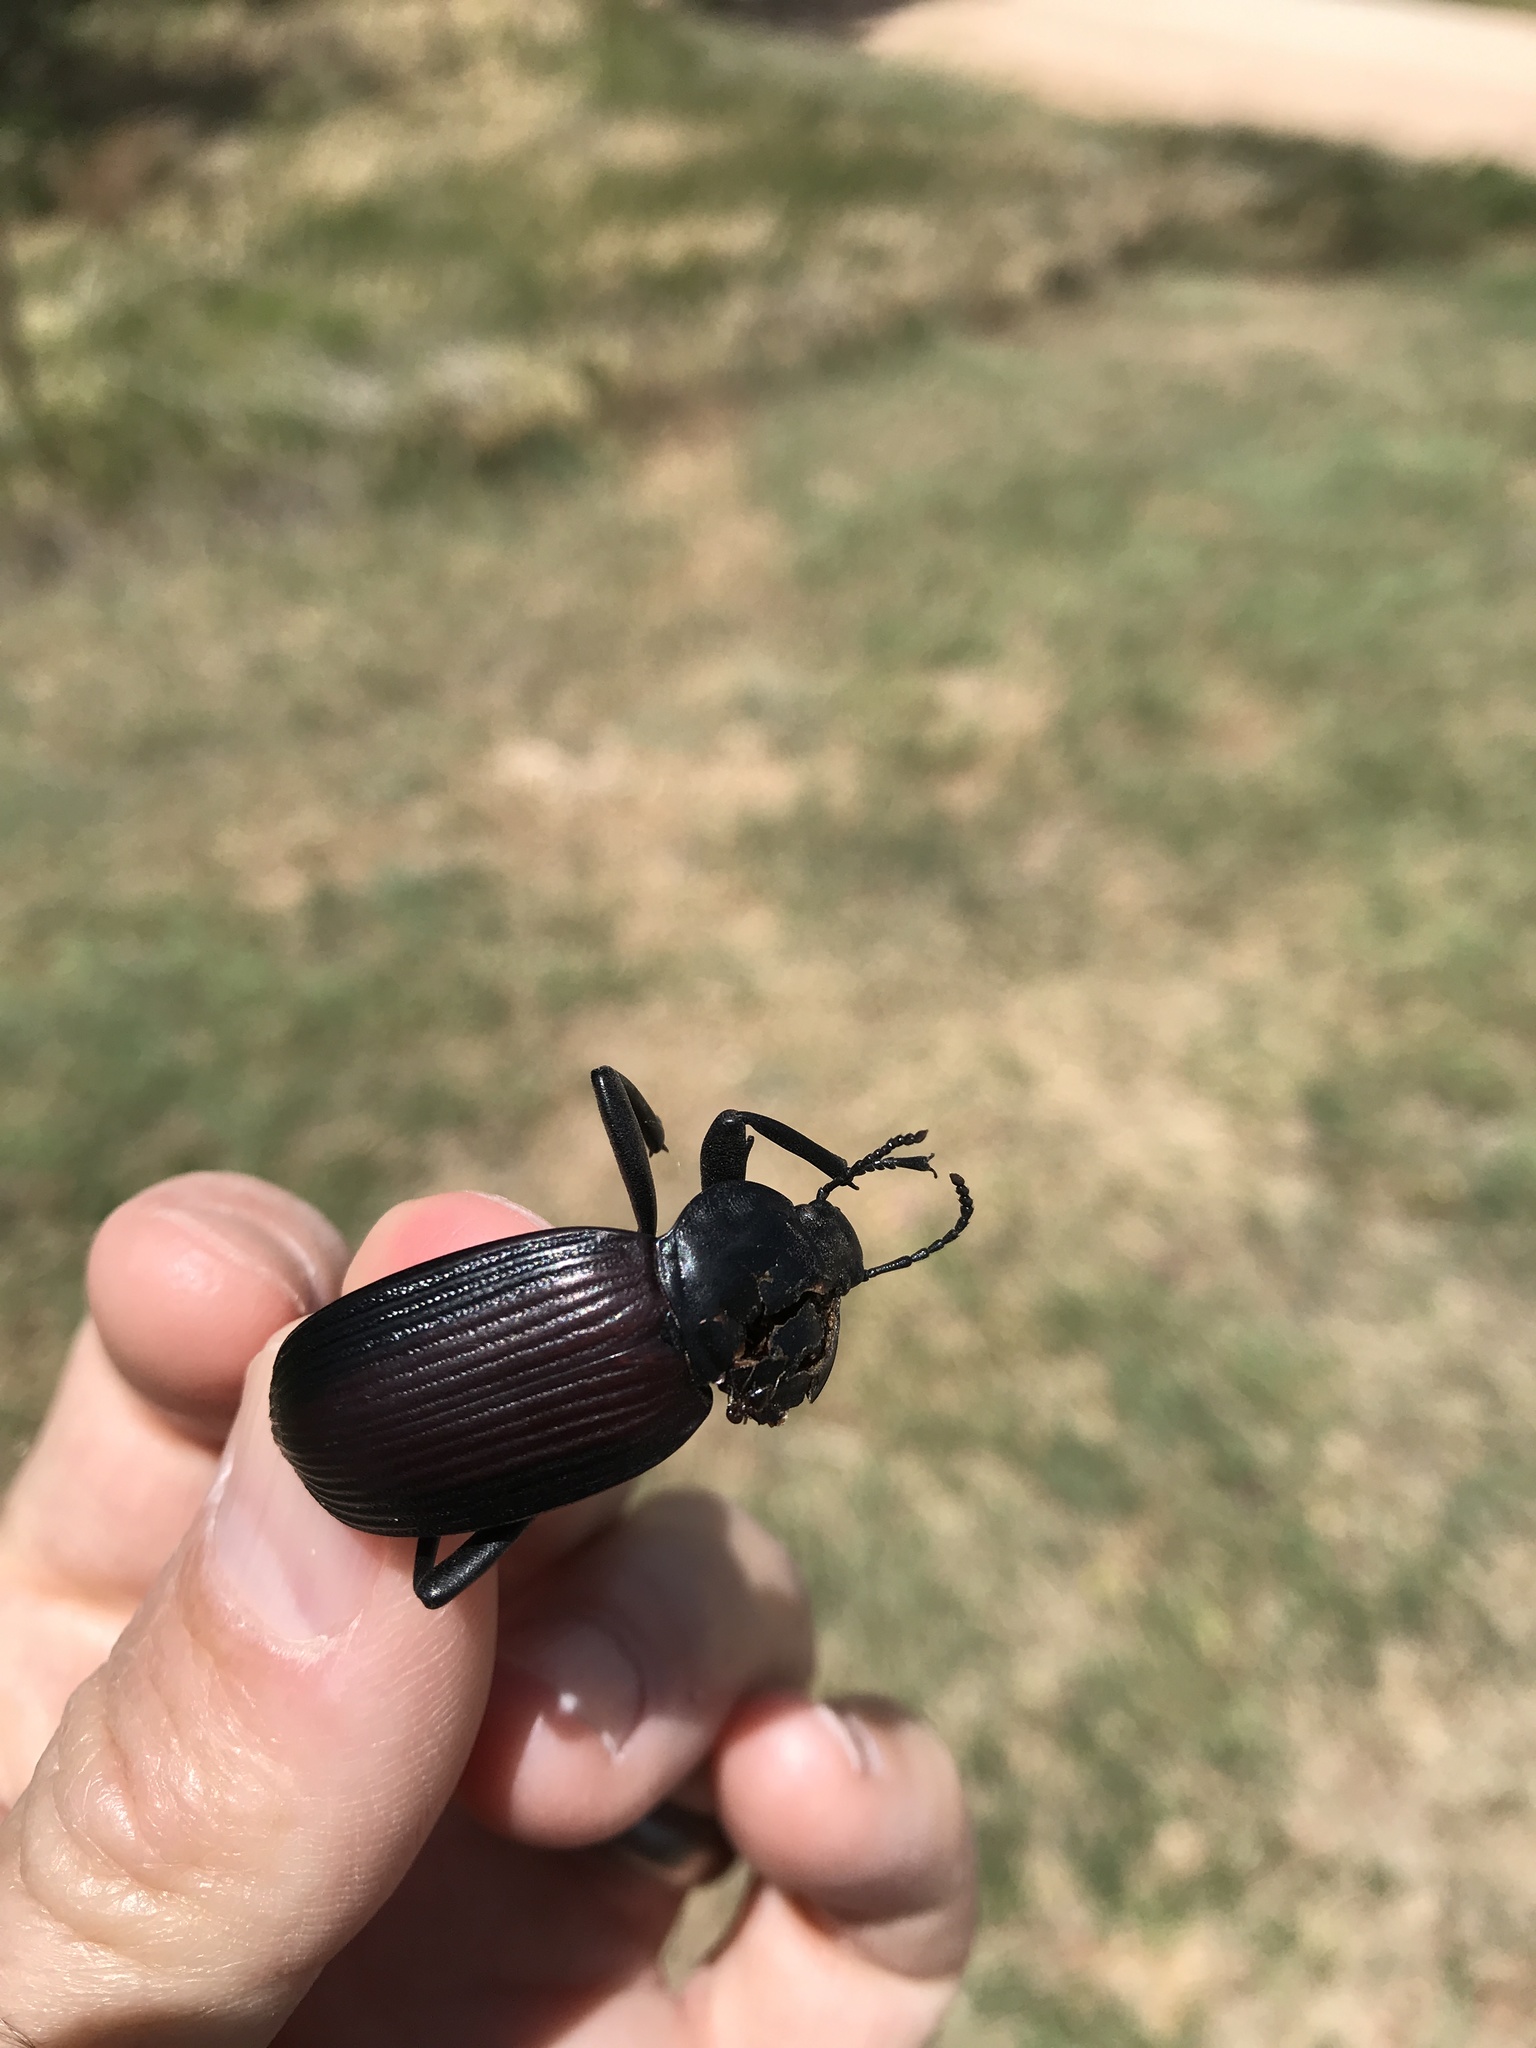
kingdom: Animalia
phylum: Arthropoda
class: Insecta
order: Coleoptera
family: Tenebrionidae
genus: Eleodes
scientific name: Eleodes acuta
